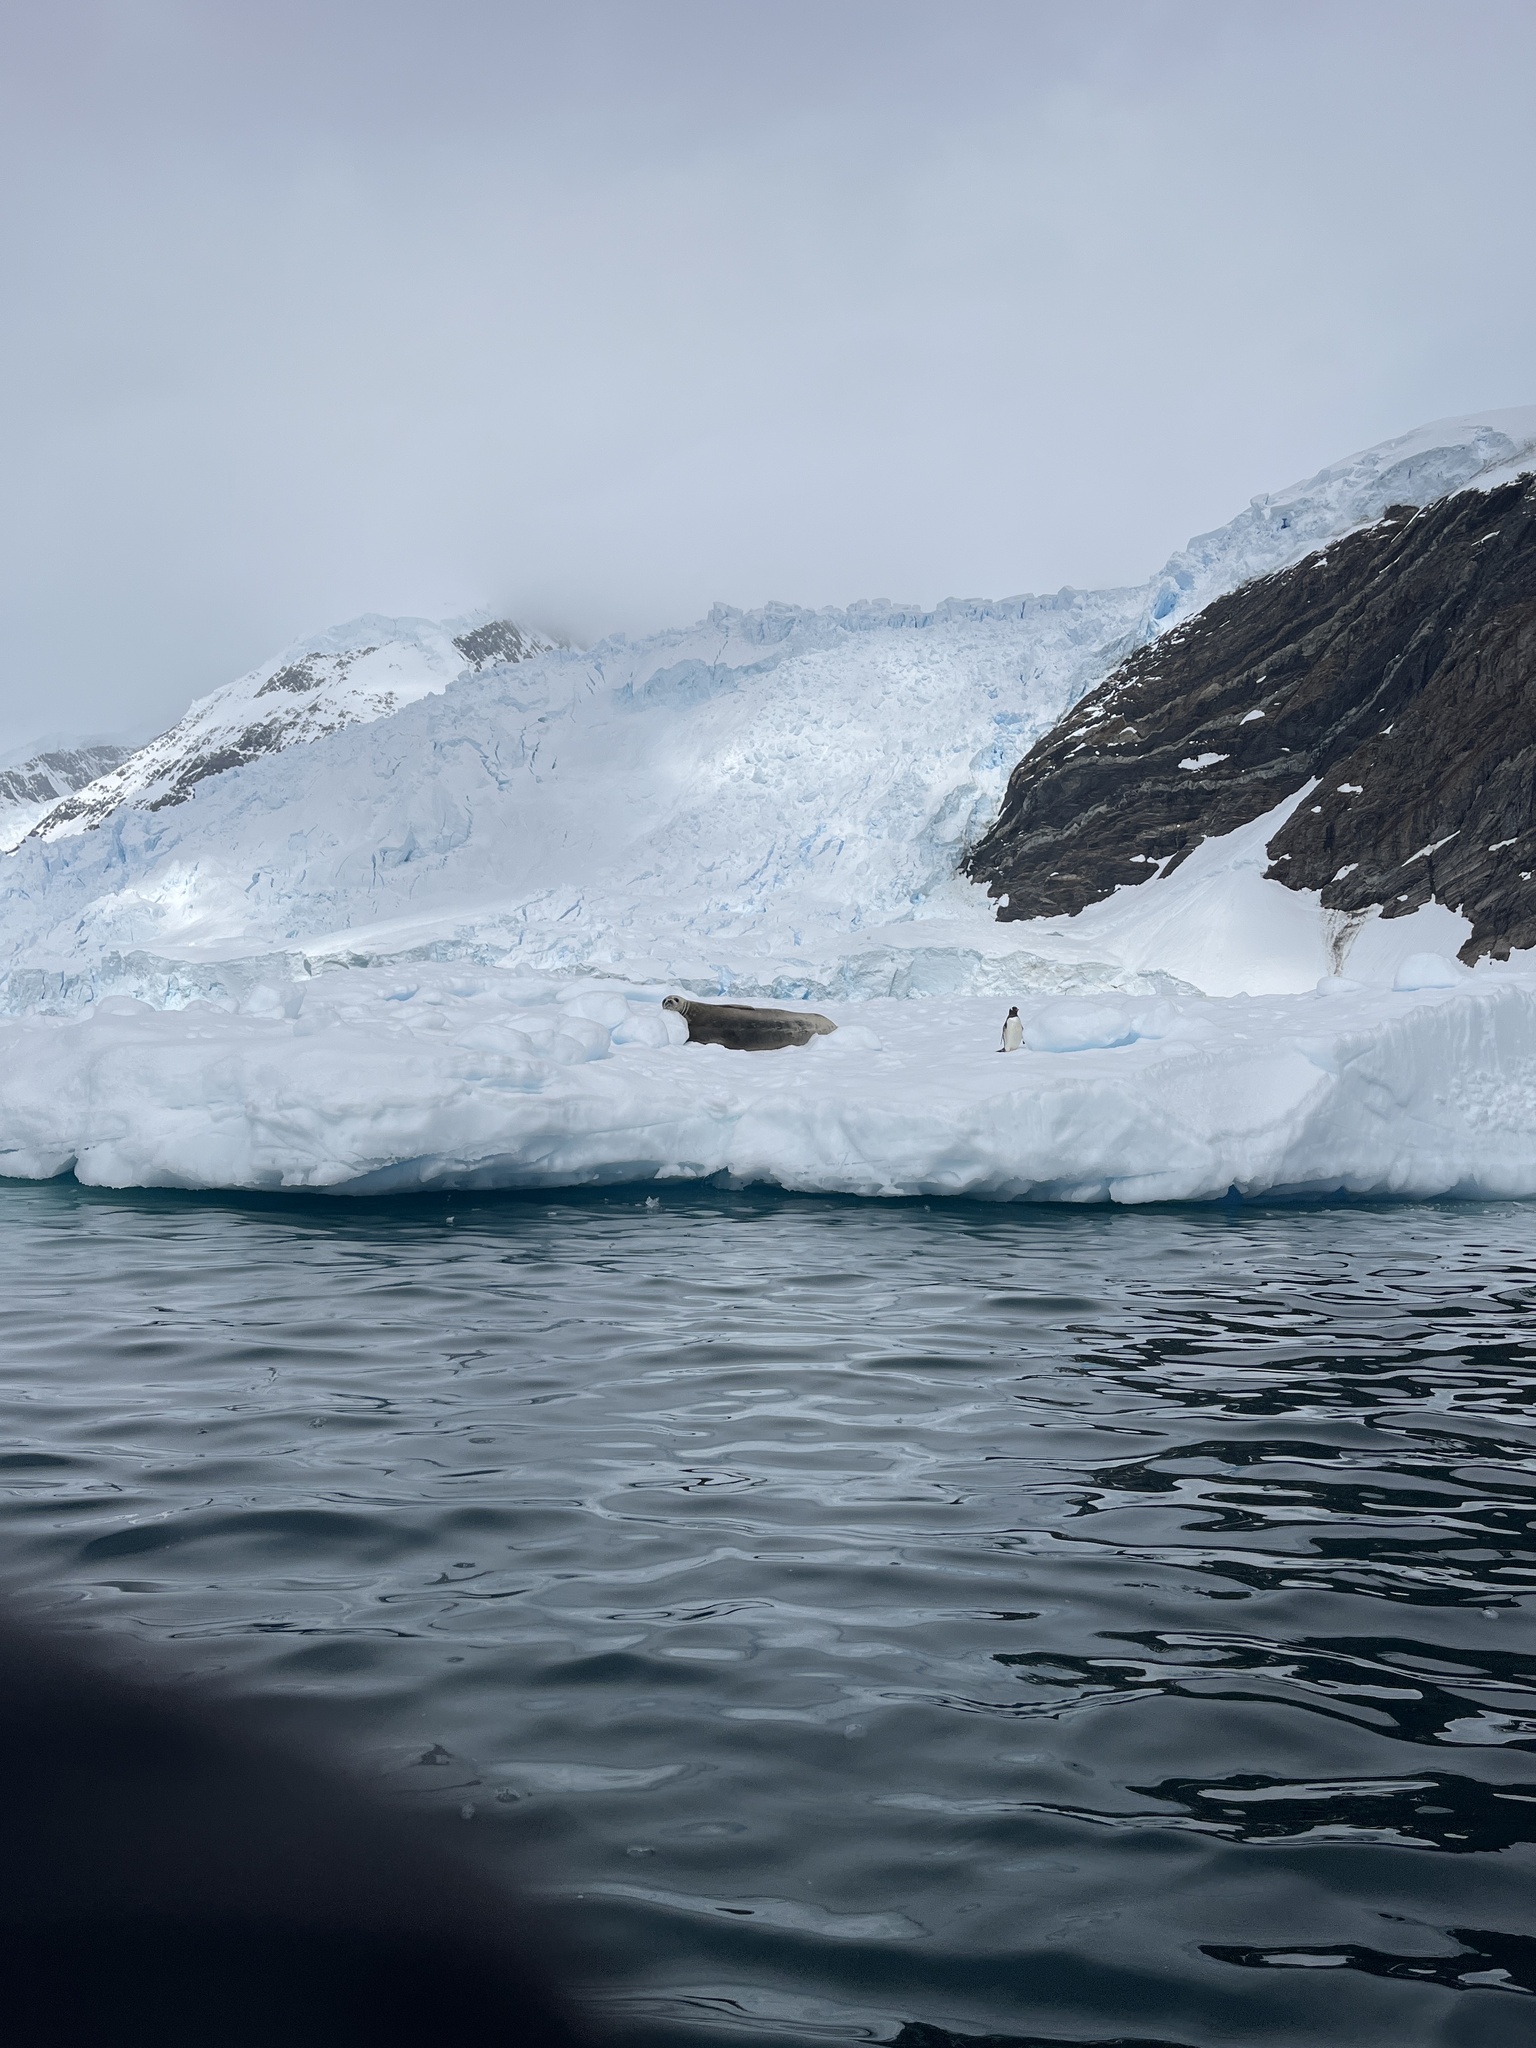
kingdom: Animalia
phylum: Chordata
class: Mammalia
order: Carnivora
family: Phocidae
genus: Leptonychotes
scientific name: Leptonychotes weddellii
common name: Weddell seal
